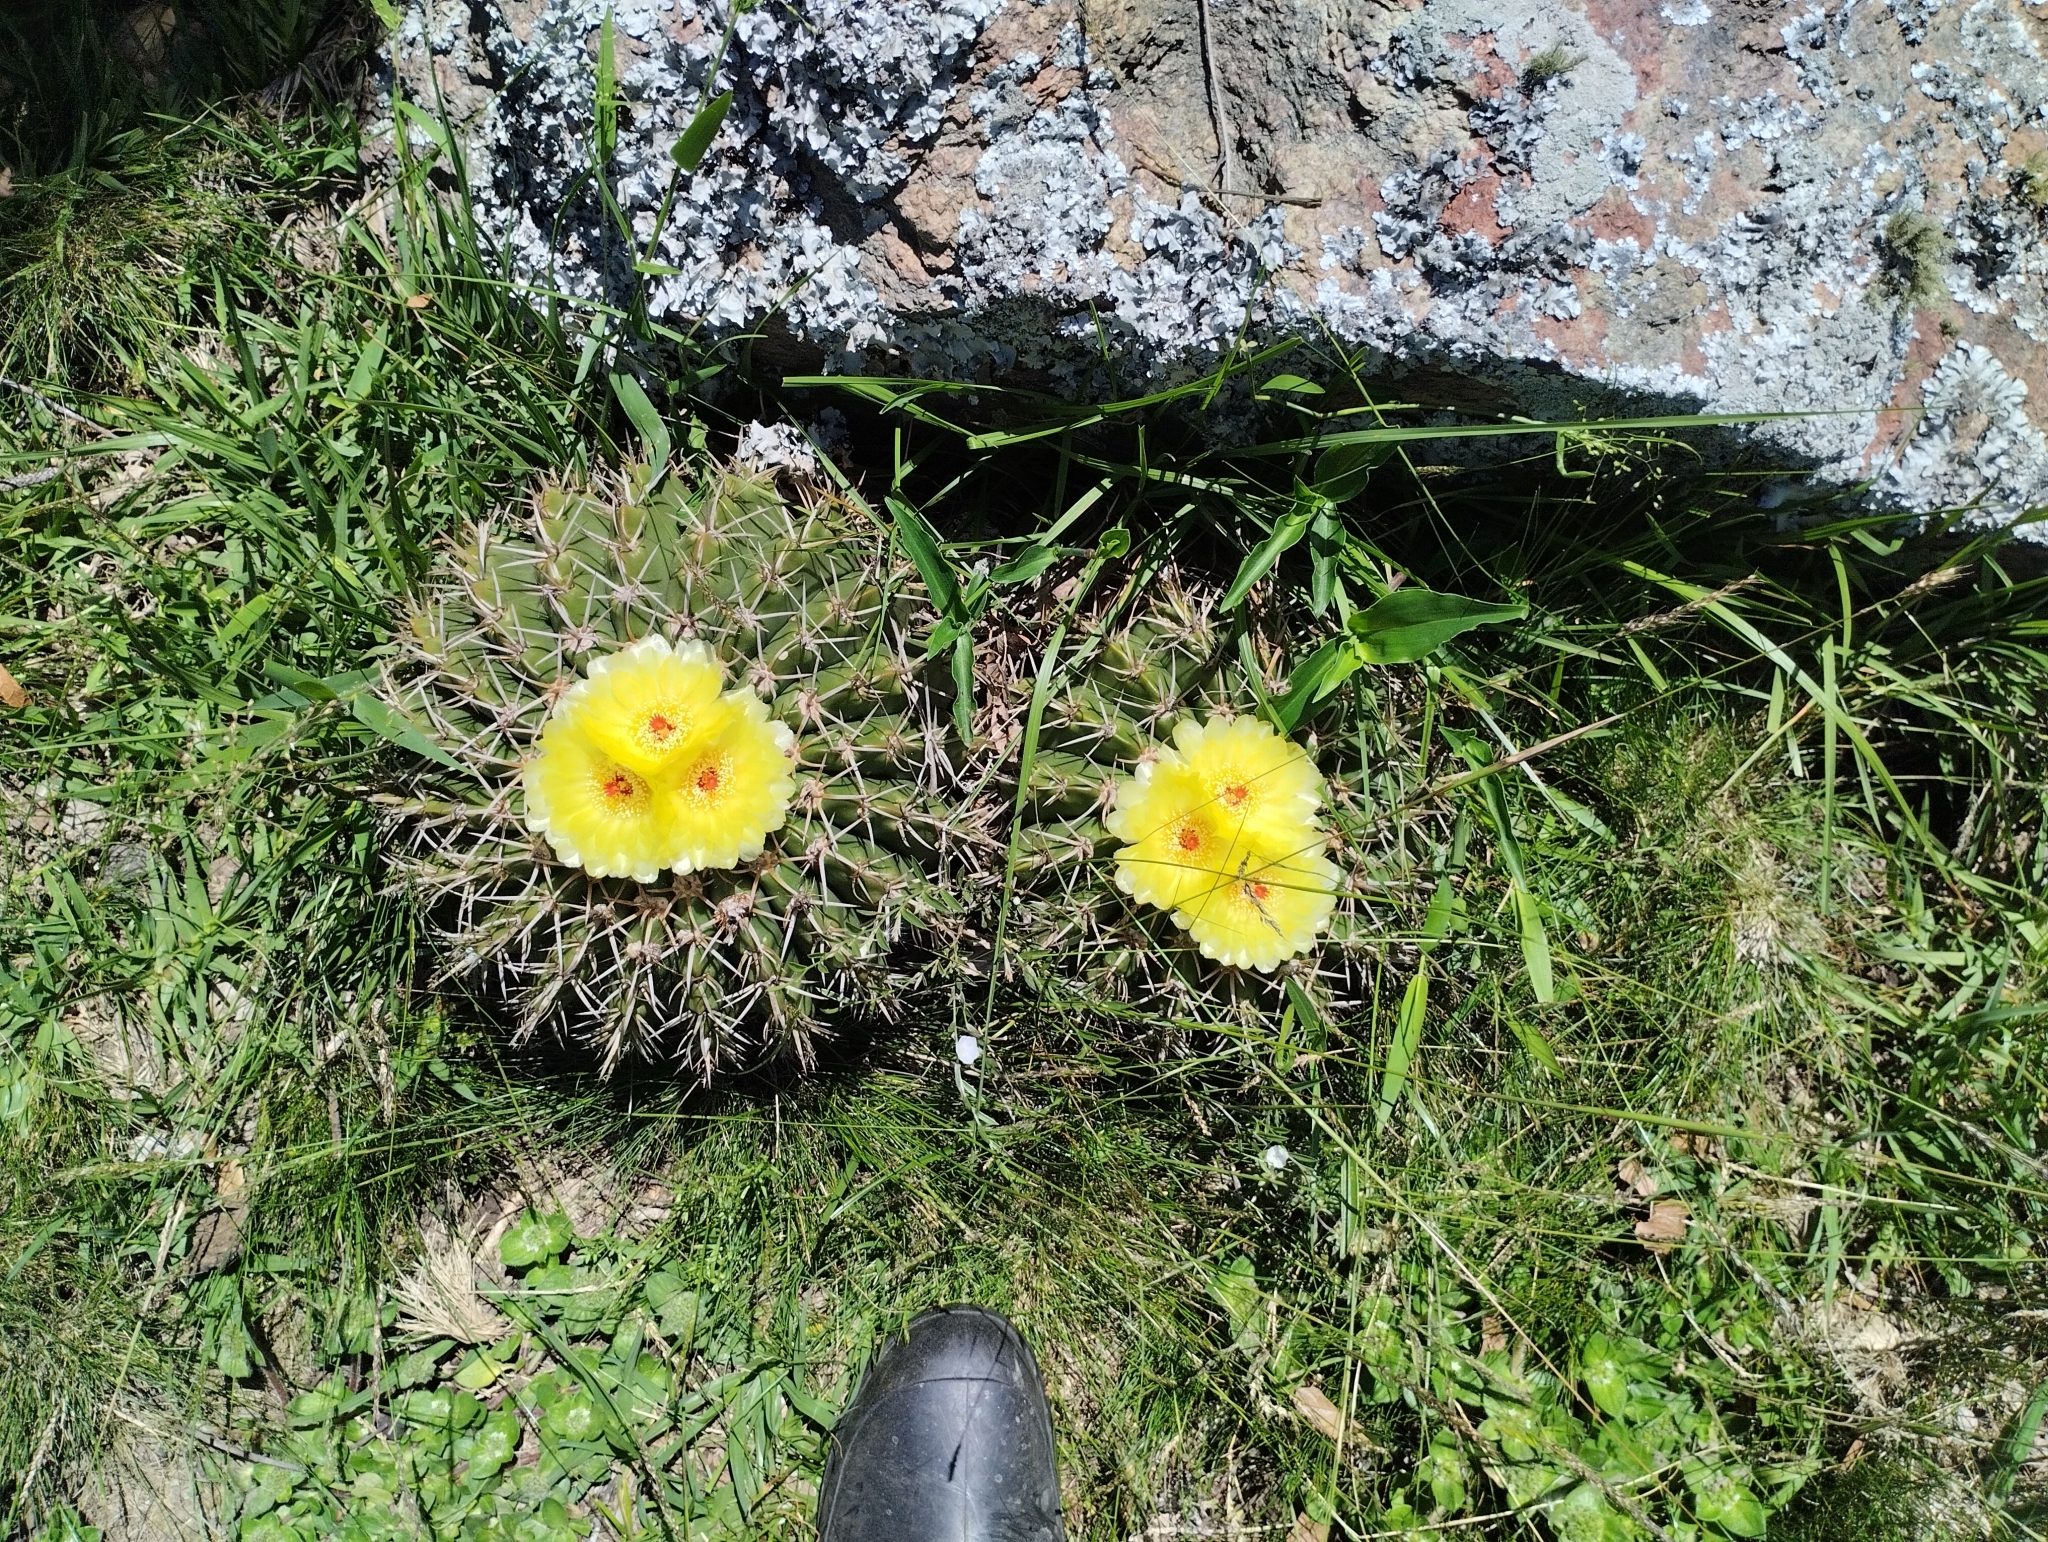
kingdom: Plantae
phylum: Tracheophyta
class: Magnoliopsida
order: Caryophyllales
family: Cactaceae
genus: Parodia
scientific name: Parodia erinacea
